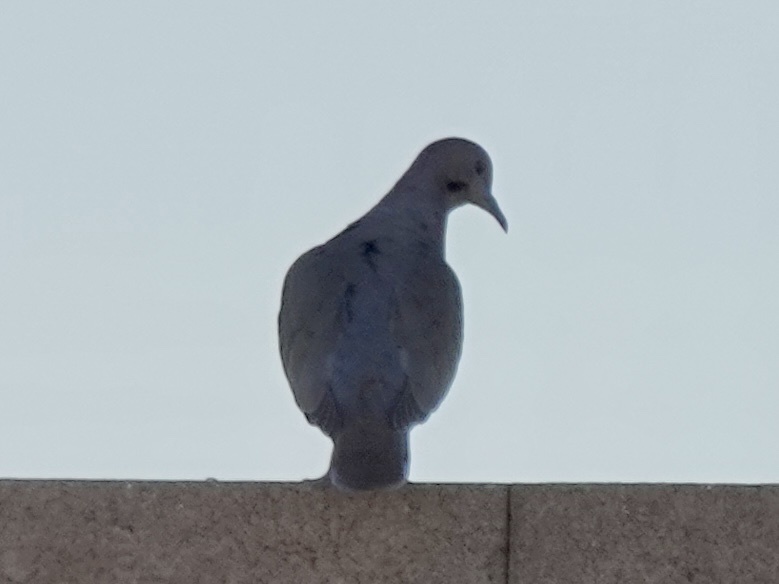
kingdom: Animalia
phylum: Chordata
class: Aves
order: Columbiformes
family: Columbidae
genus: Zenaida
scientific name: Zenaida asiatica
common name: White-winged dove
